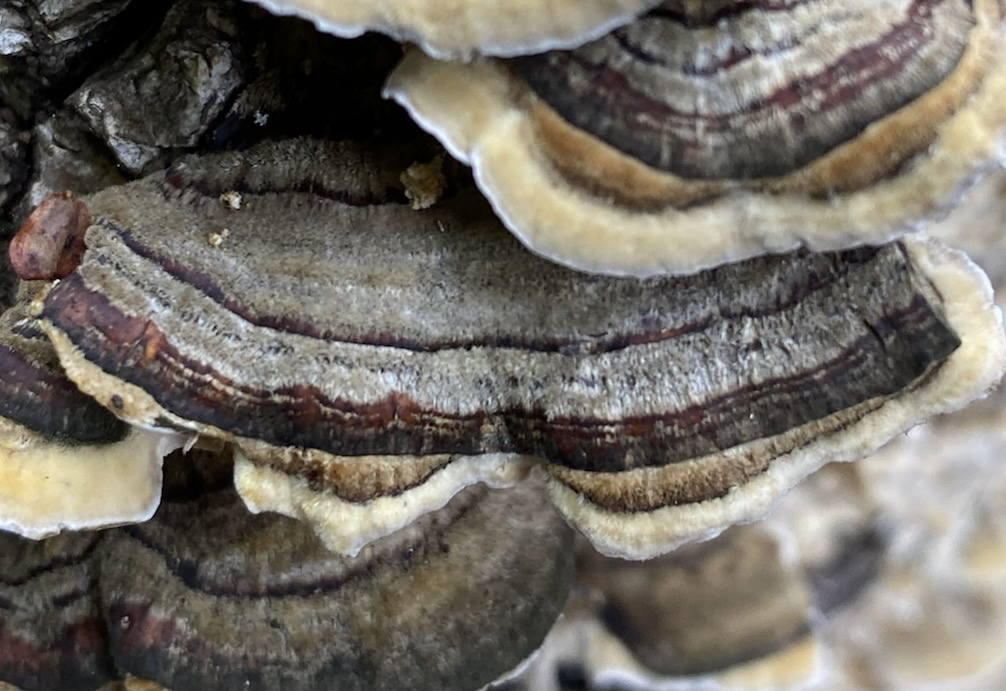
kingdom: Fungi
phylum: Basidiomycota
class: Agaricomycetes
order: Polyporales
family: Polyporaceae
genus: Trametes
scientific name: Trametes versicolor
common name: Turkeytail
